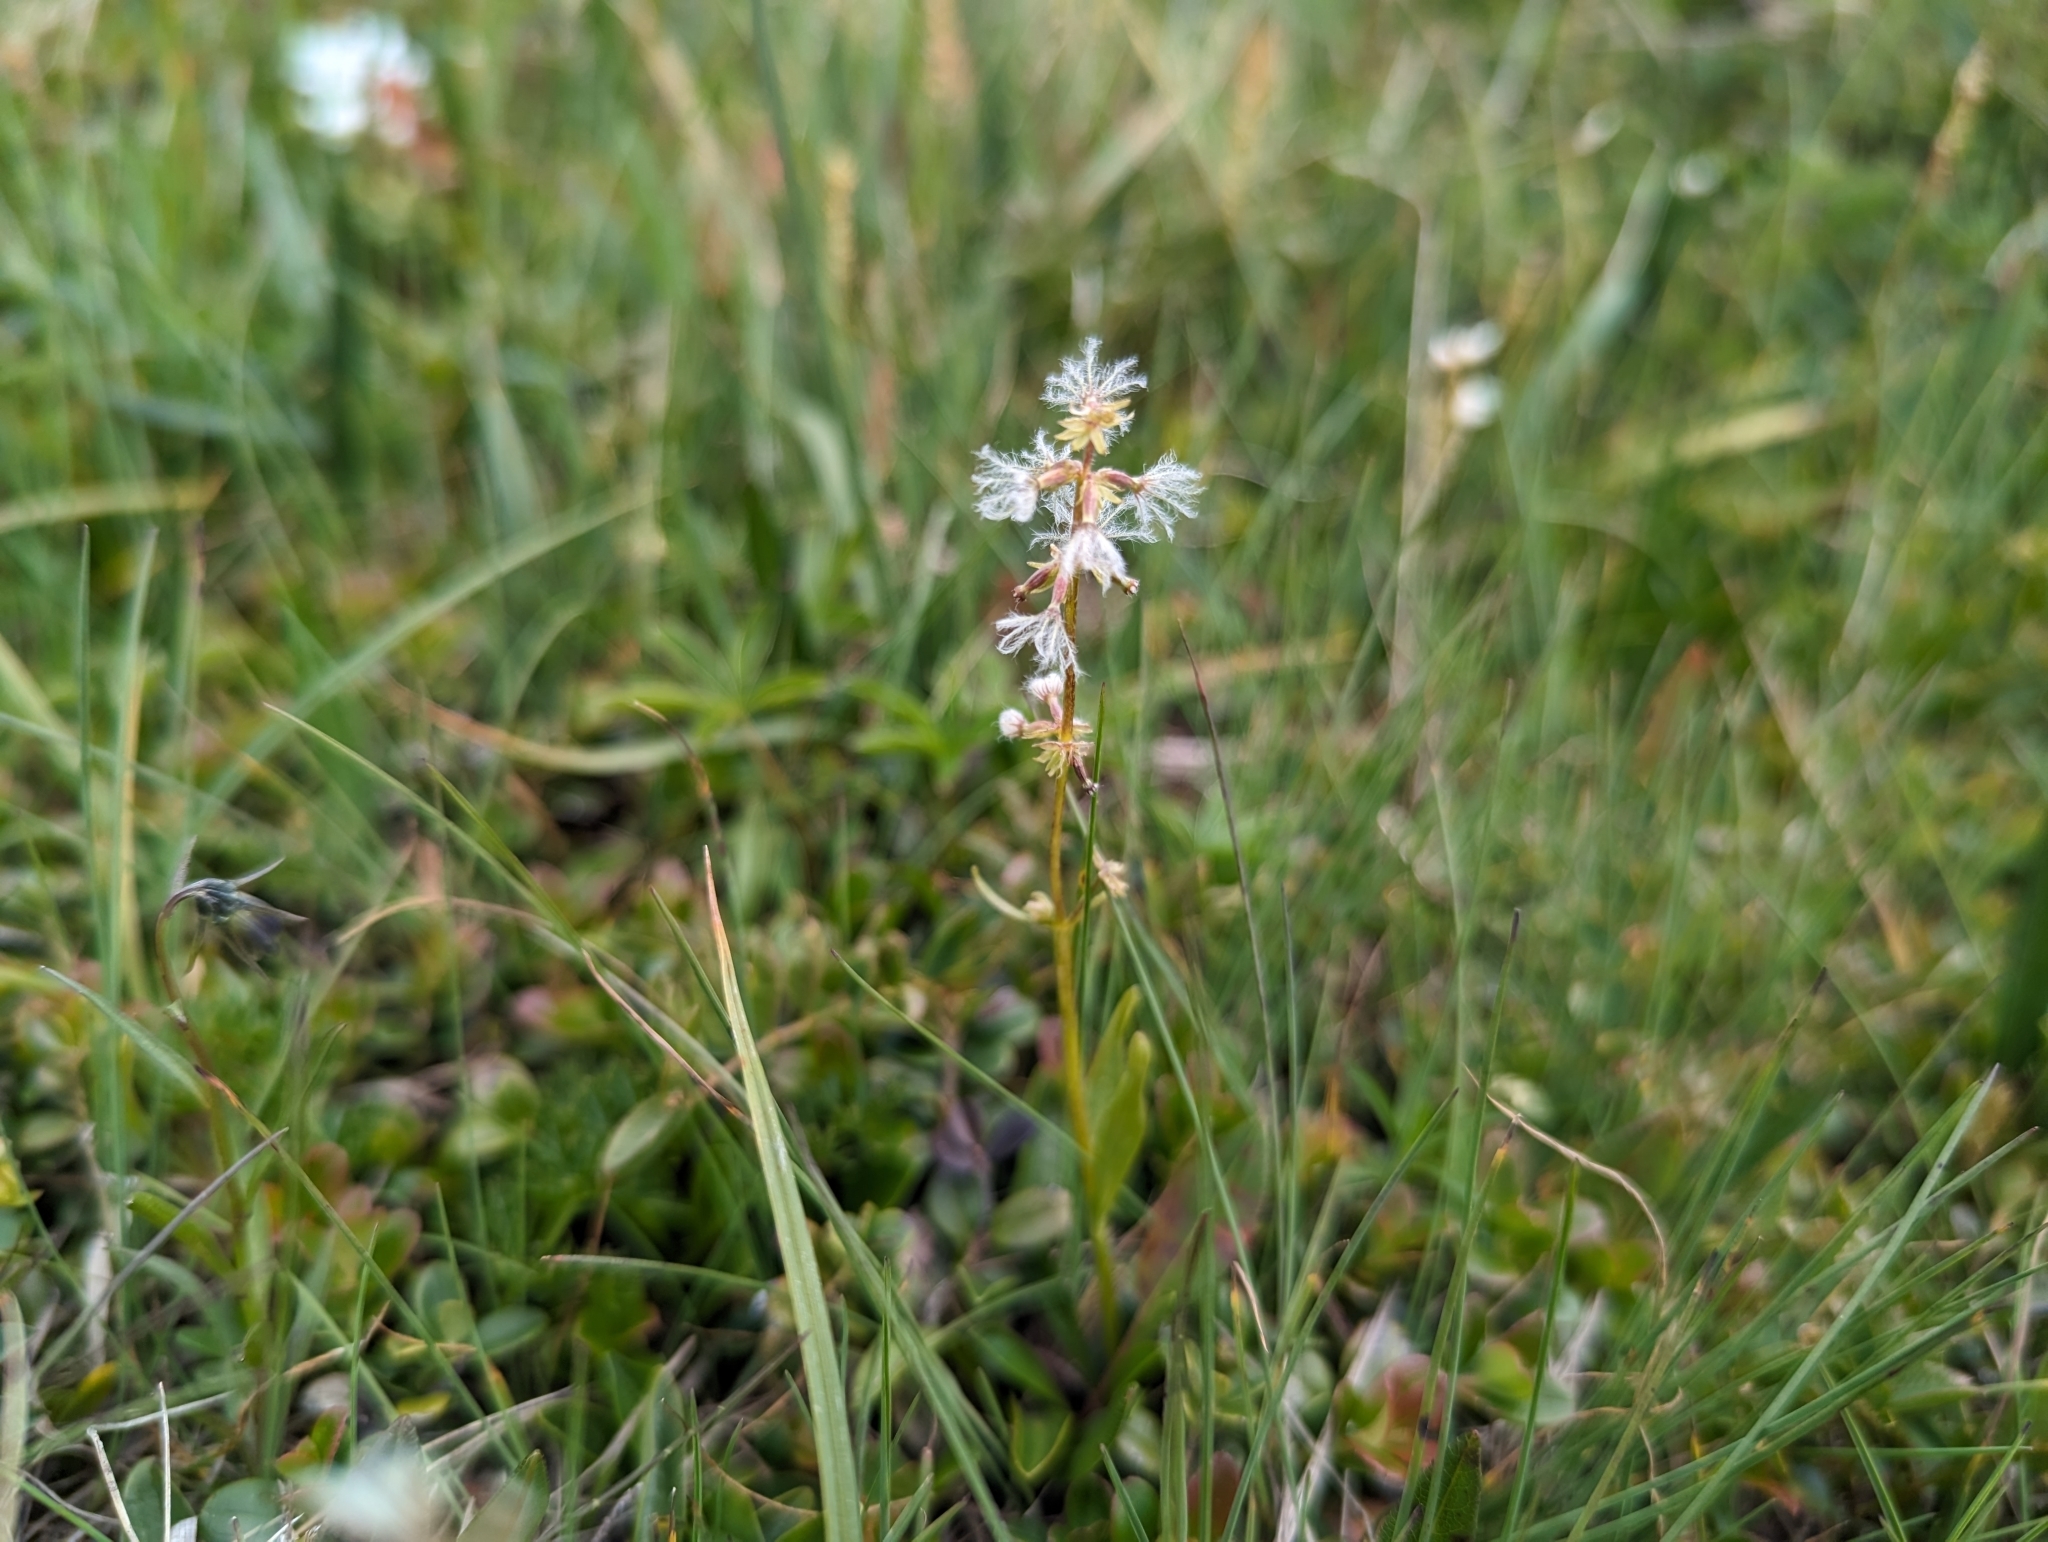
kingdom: Plantae
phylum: Tracheophyta
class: Magnoliopsida
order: Dipsacales
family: Caprifoliaceae
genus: Valeriana
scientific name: Valeriana celtica
